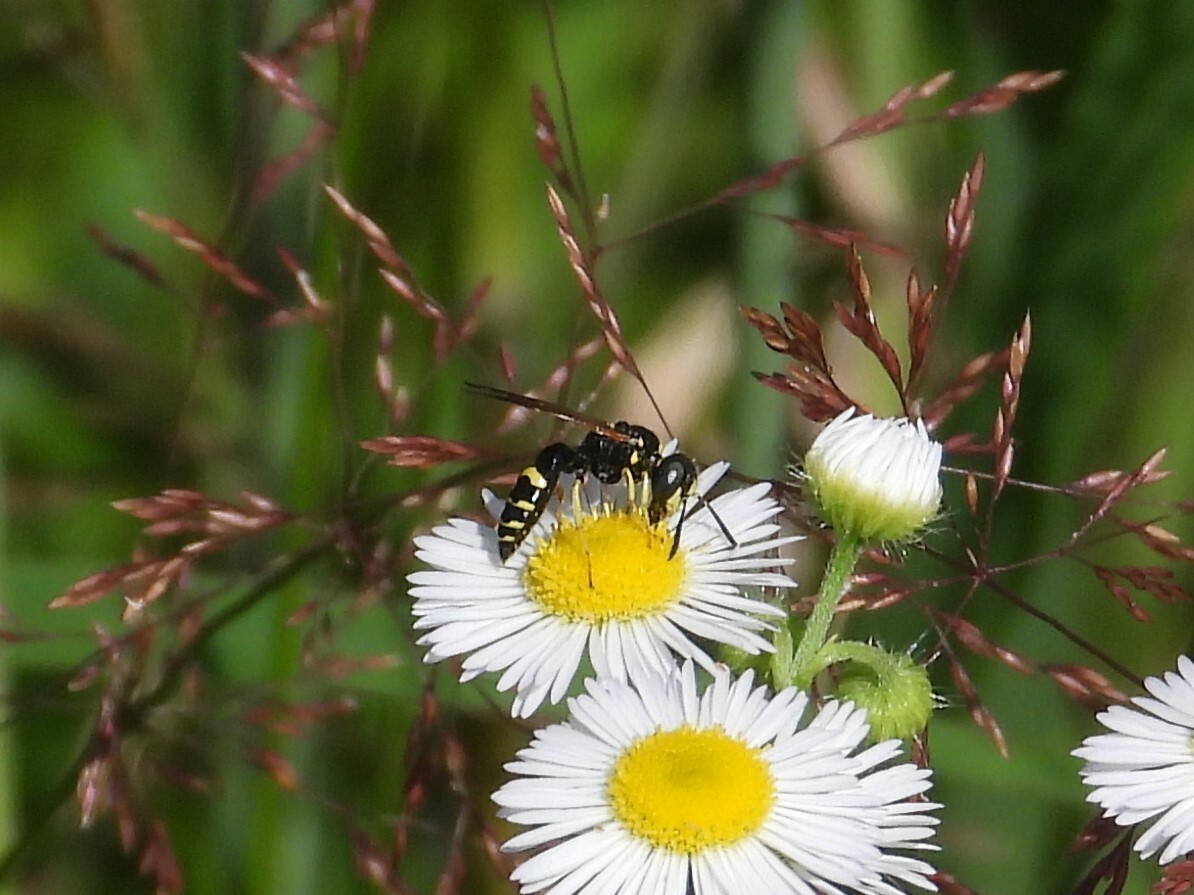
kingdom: Animalia
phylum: Arthropoda
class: Insecta
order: Hymenoptera
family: Crabronidae
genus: Philanthus
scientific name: Philanthus bilunatus
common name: Two moons beewolf
